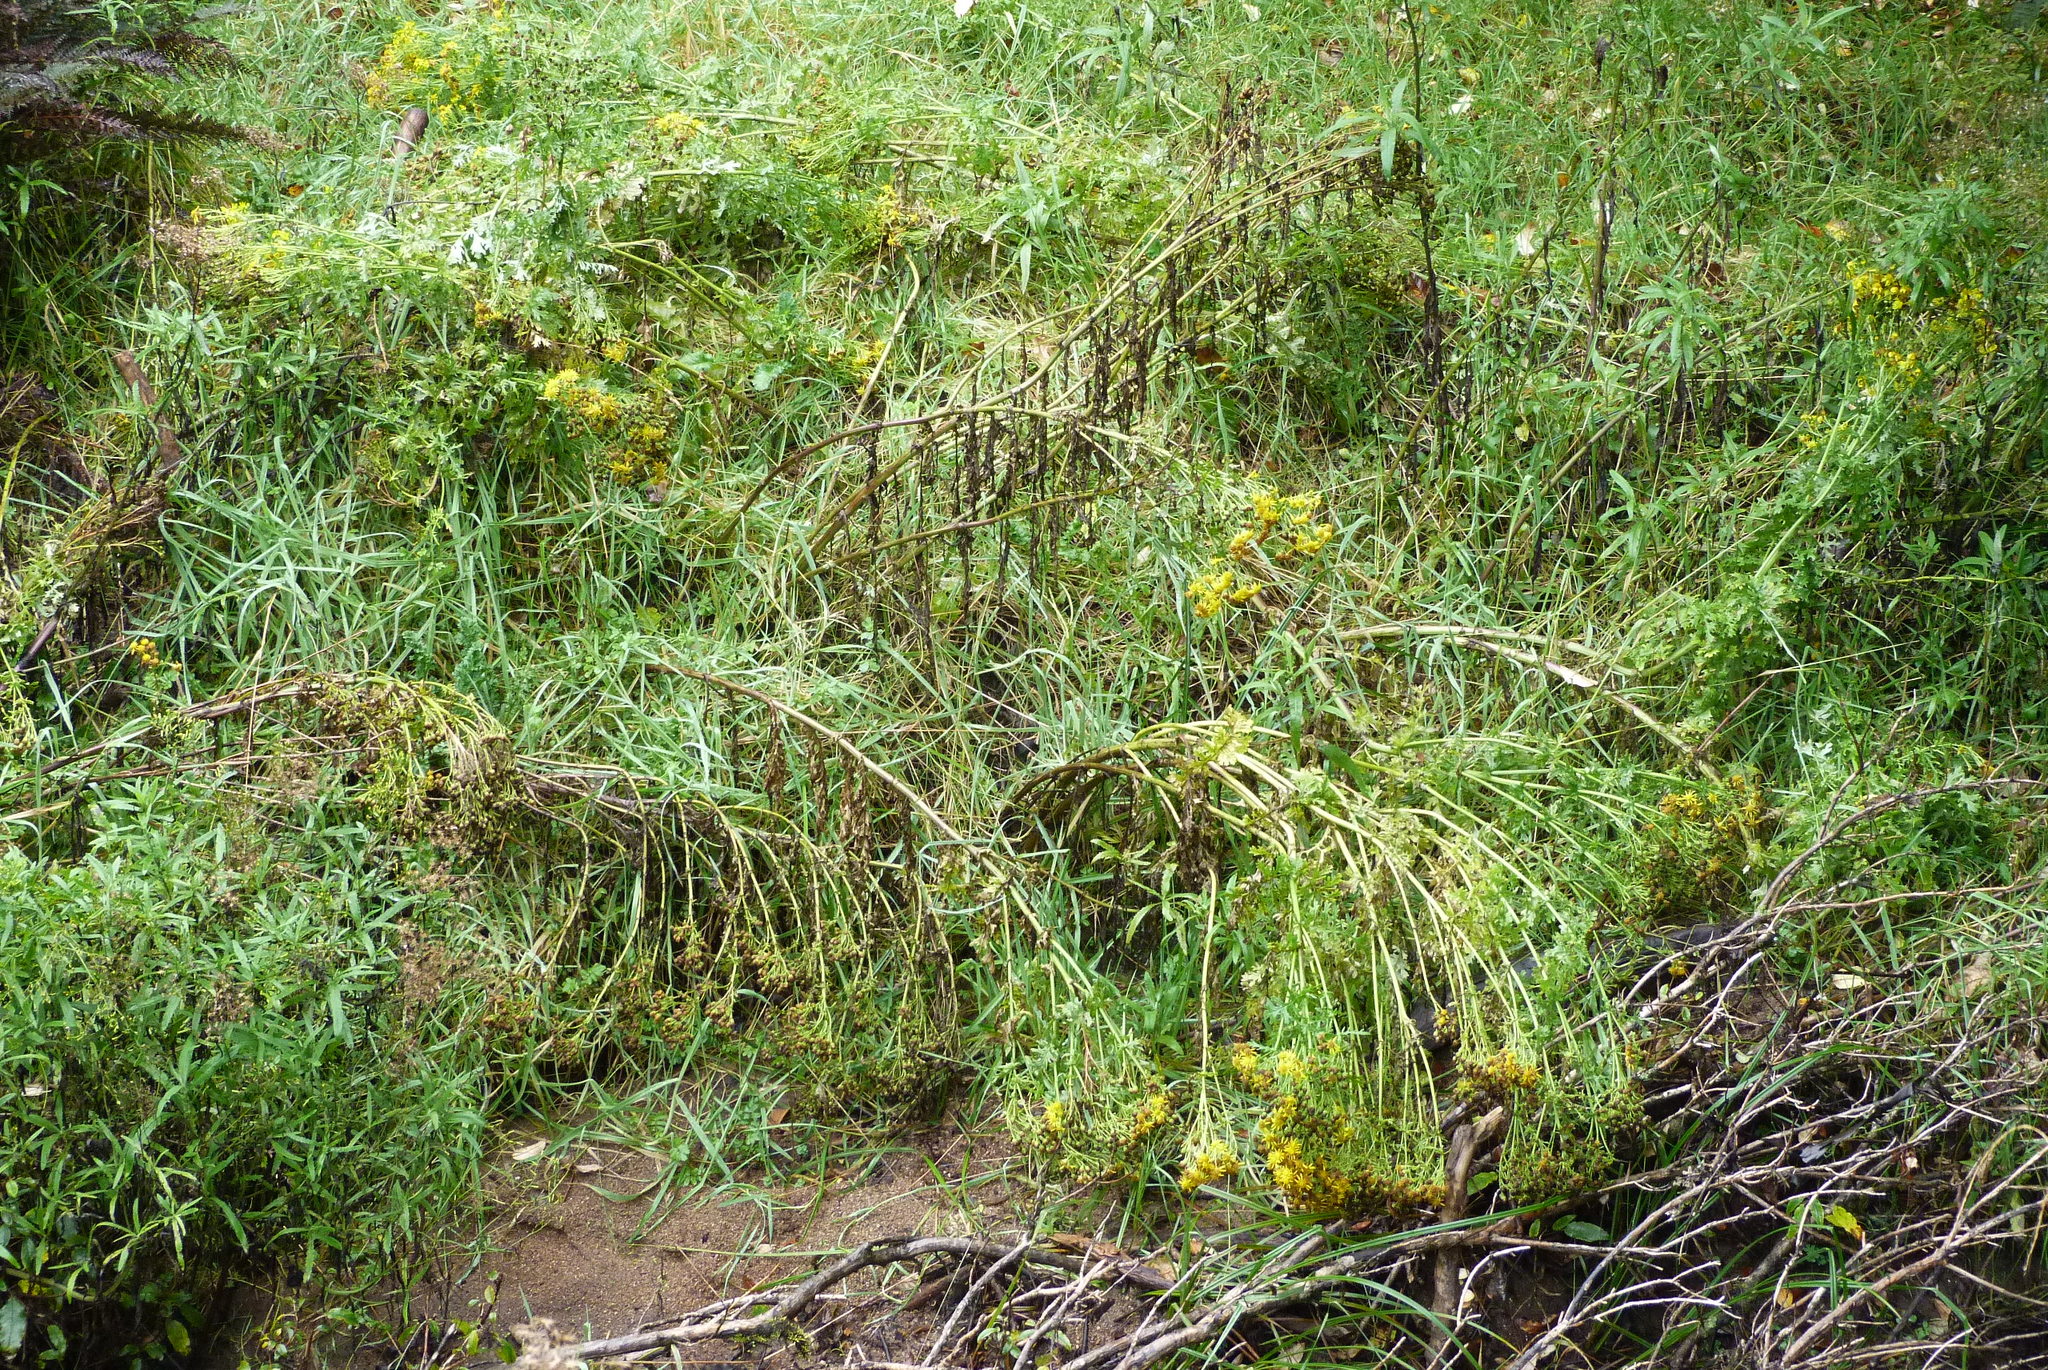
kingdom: Plantae
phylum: Tracheophyta
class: Magnoliopsida
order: Asterales
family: Asteraceae
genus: Jacobaea
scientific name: Jacobaea vulgaris
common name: Stinking willie
